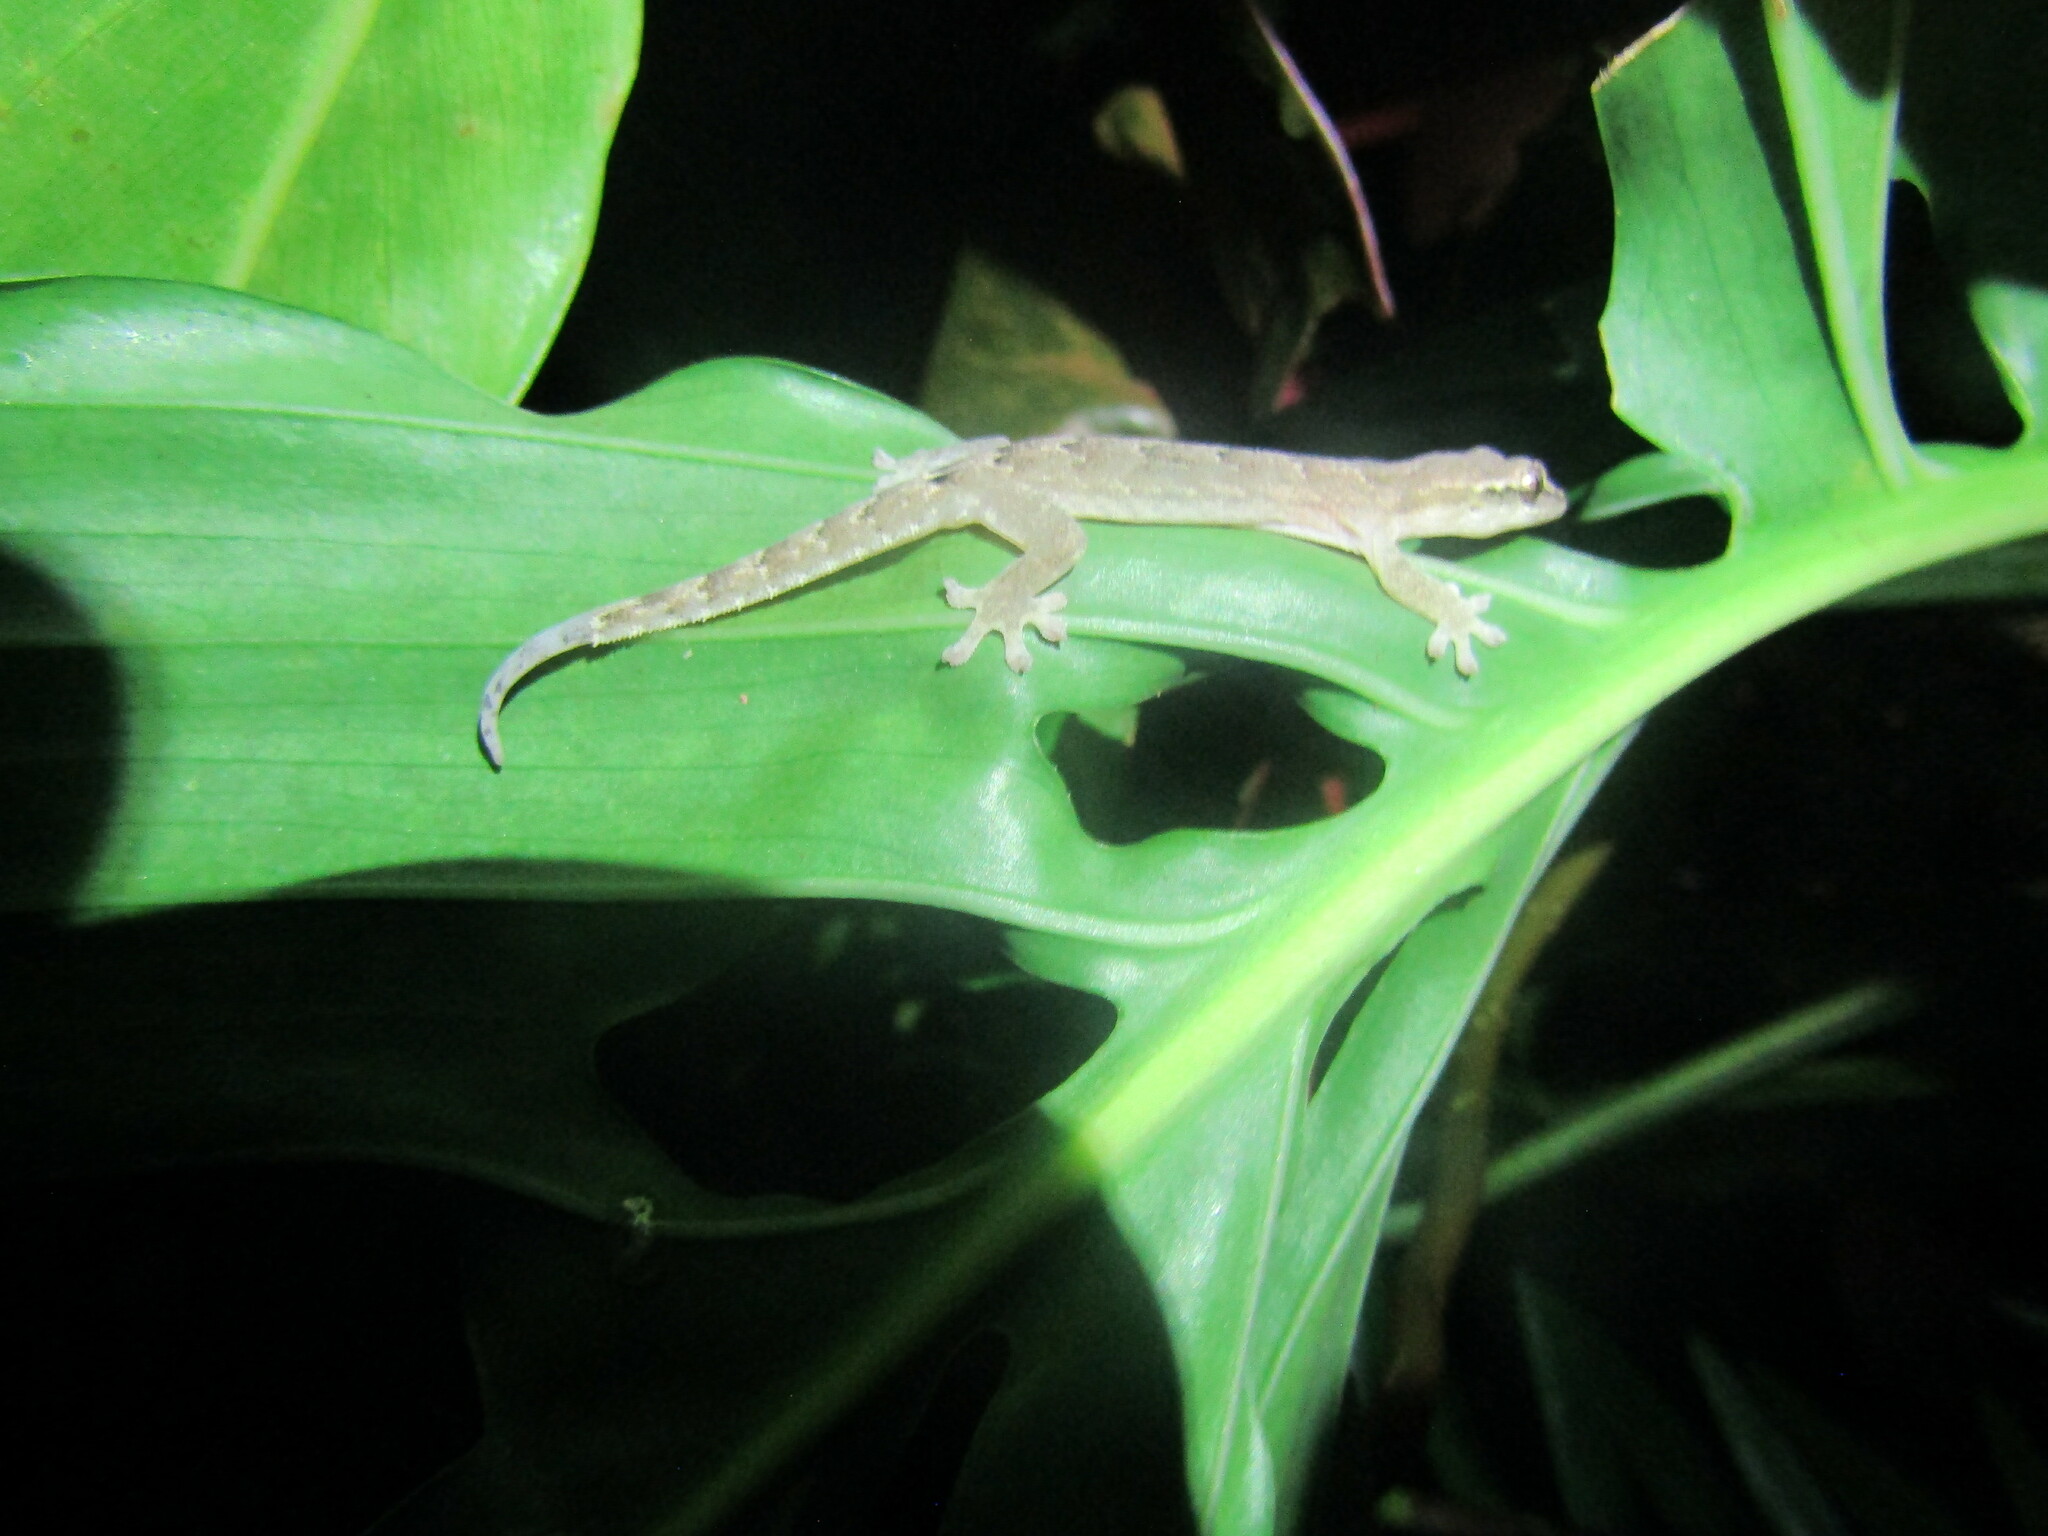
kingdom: Animalia
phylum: Chordata
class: Squamata
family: Gekkonidae
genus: Lepidodactylus
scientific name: Lepidodactylus lugubris
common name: Mourning gecko
